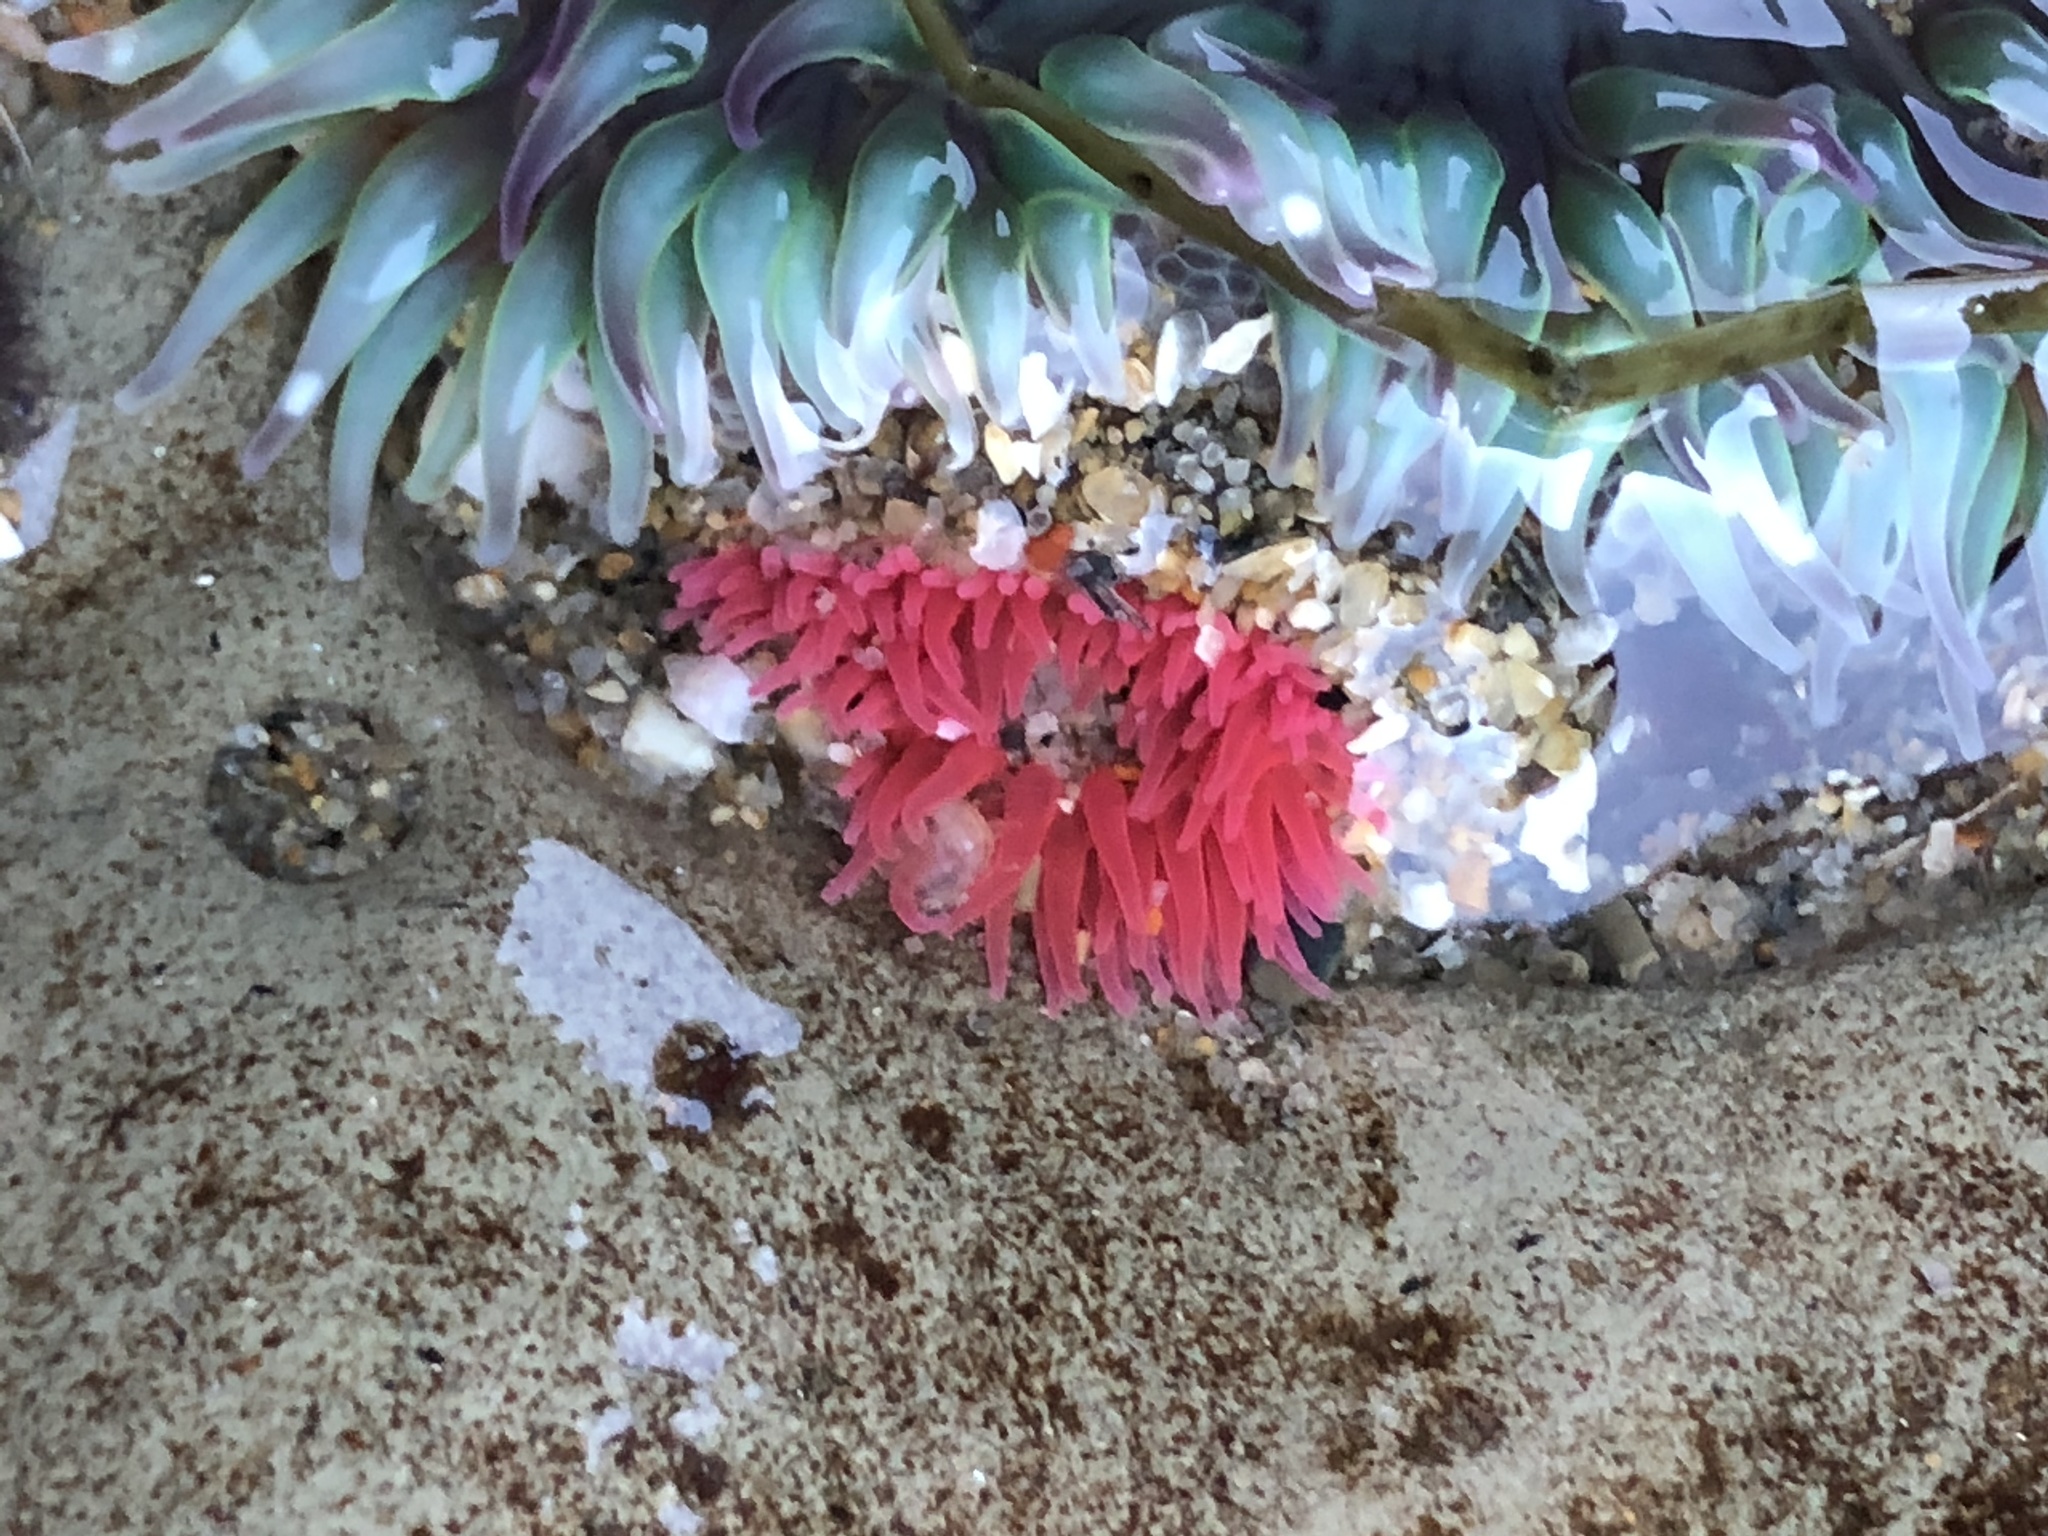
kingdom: Animalia
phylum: Cnidaria
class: Anthozoa
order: Actiniaria
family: Actiniidae
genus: Anthopleura
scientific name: Anthopleura artemisia
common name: Buried sea anemone
